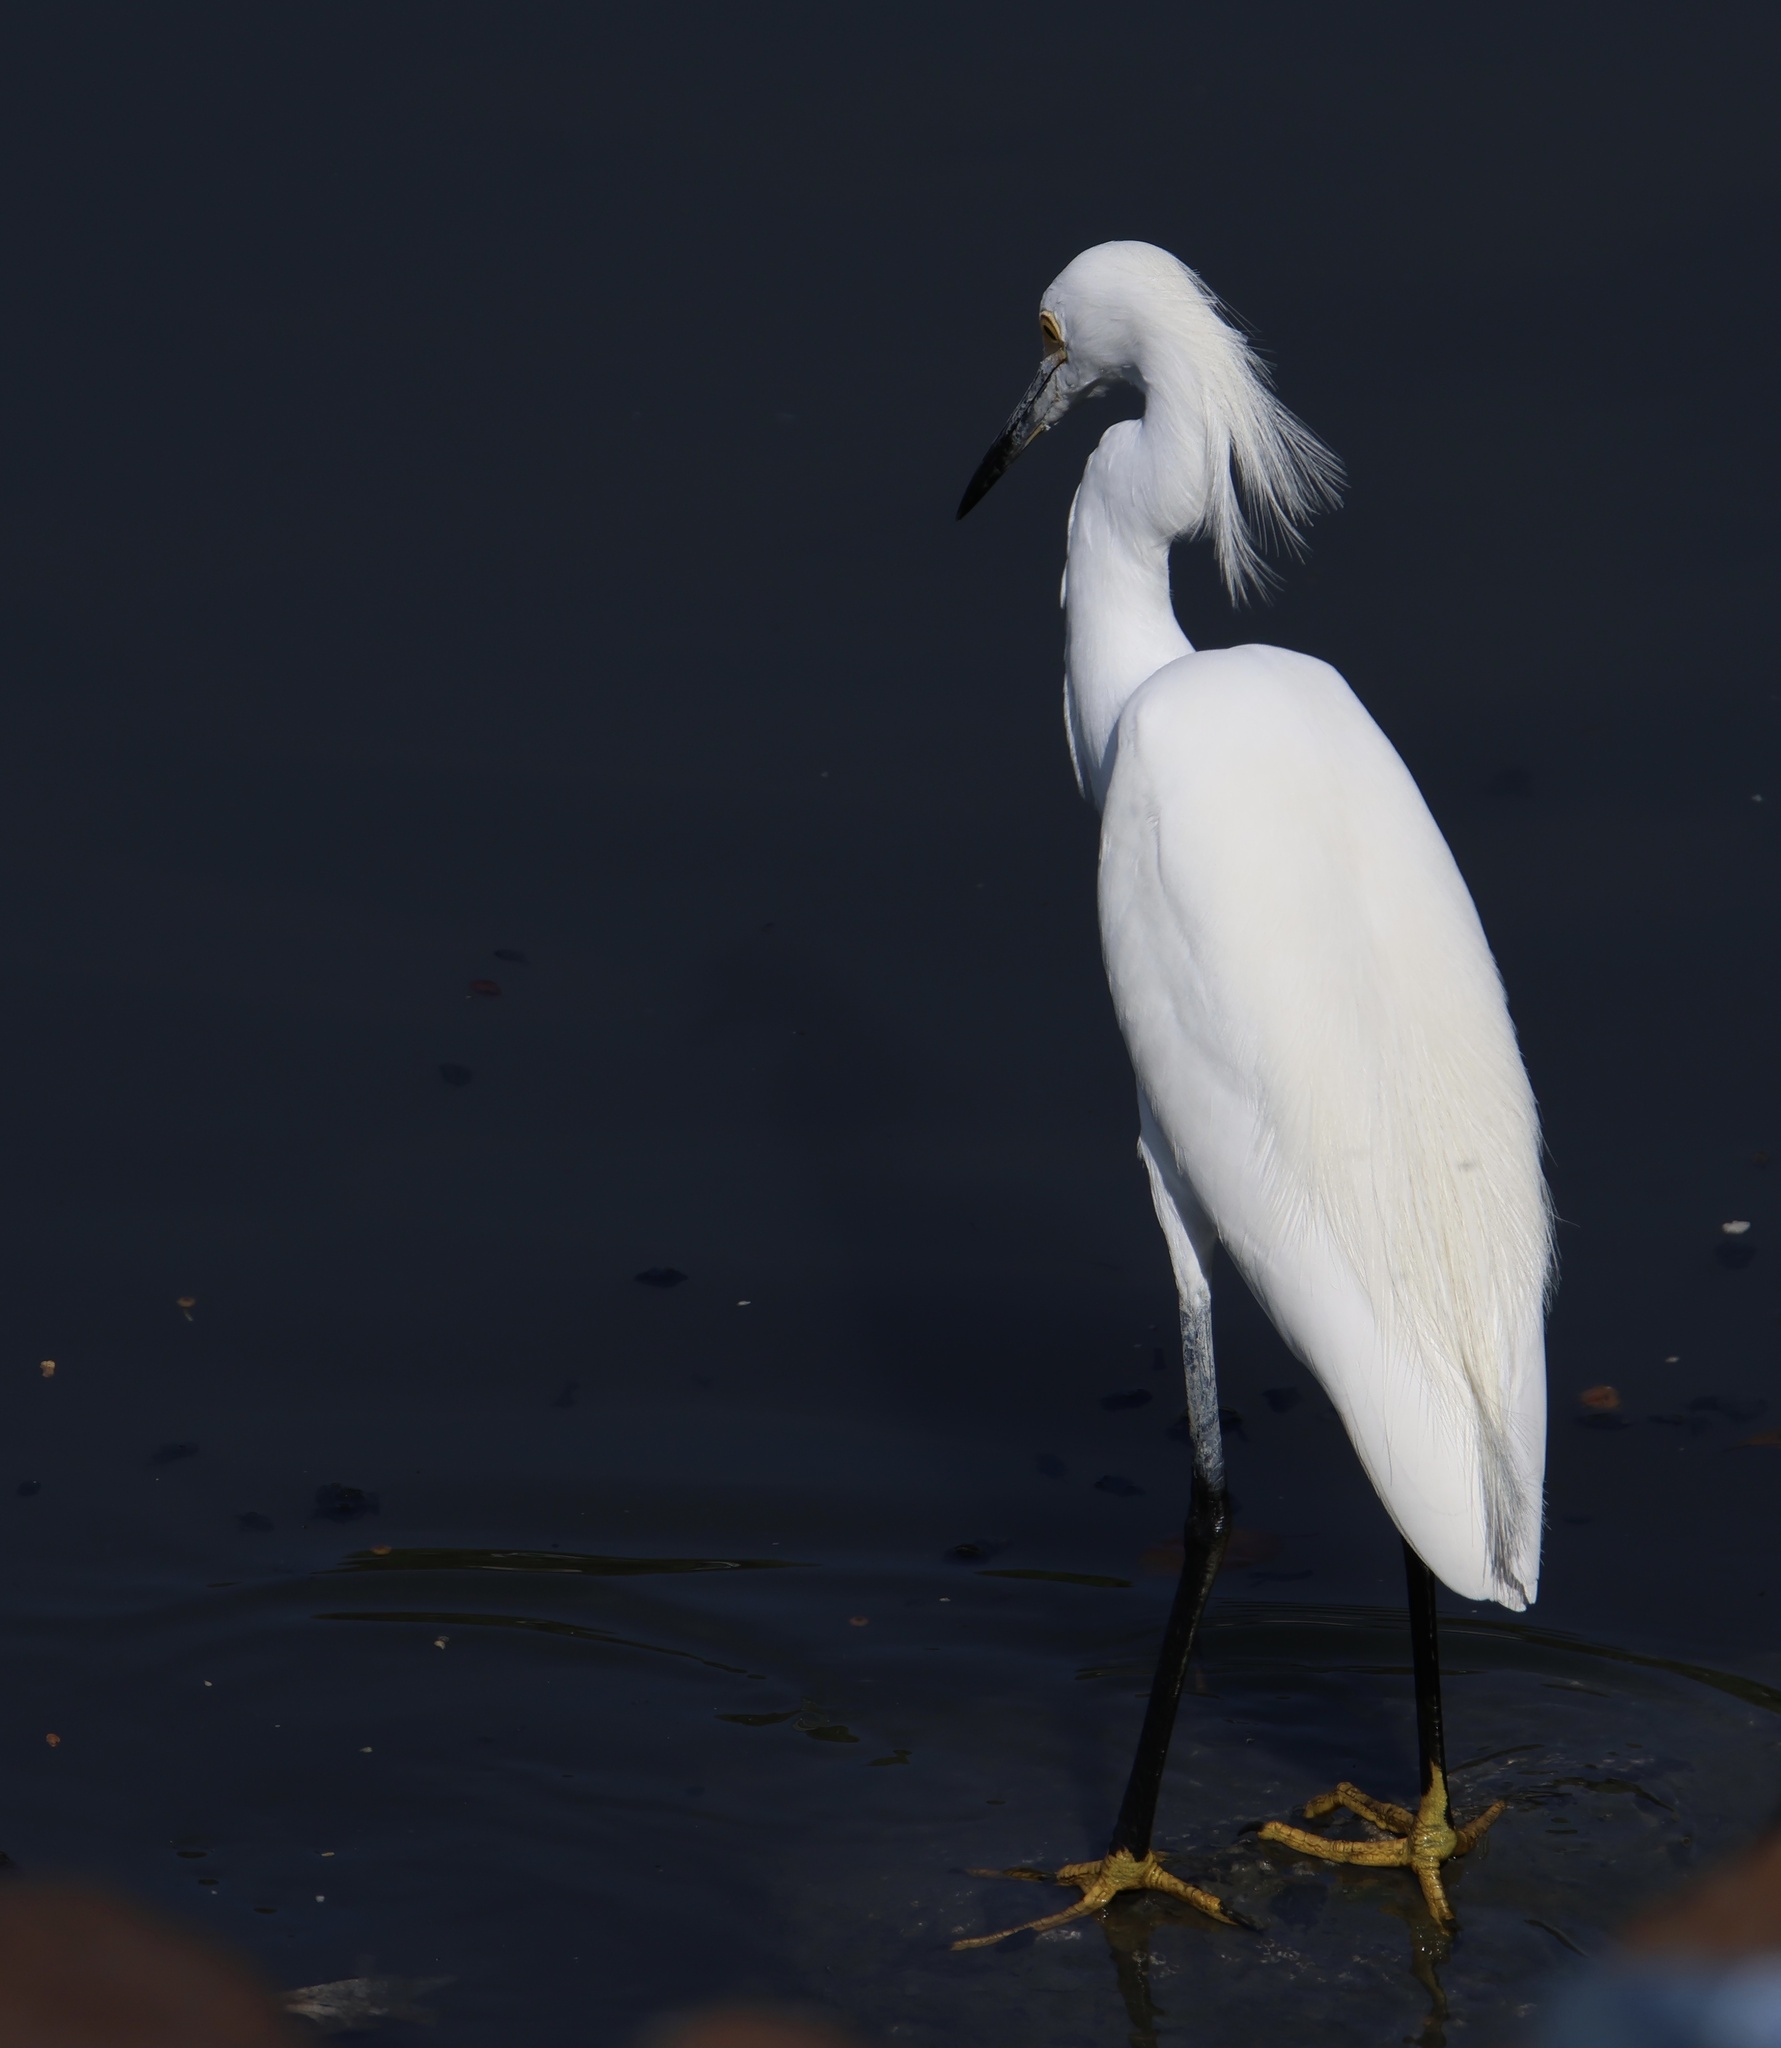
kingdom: Animalia
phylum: Chordata
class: Aves
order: Pelecaniformes
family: Ardeidae
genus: Egretta
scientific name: Egretta thula
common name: Snowy egret
